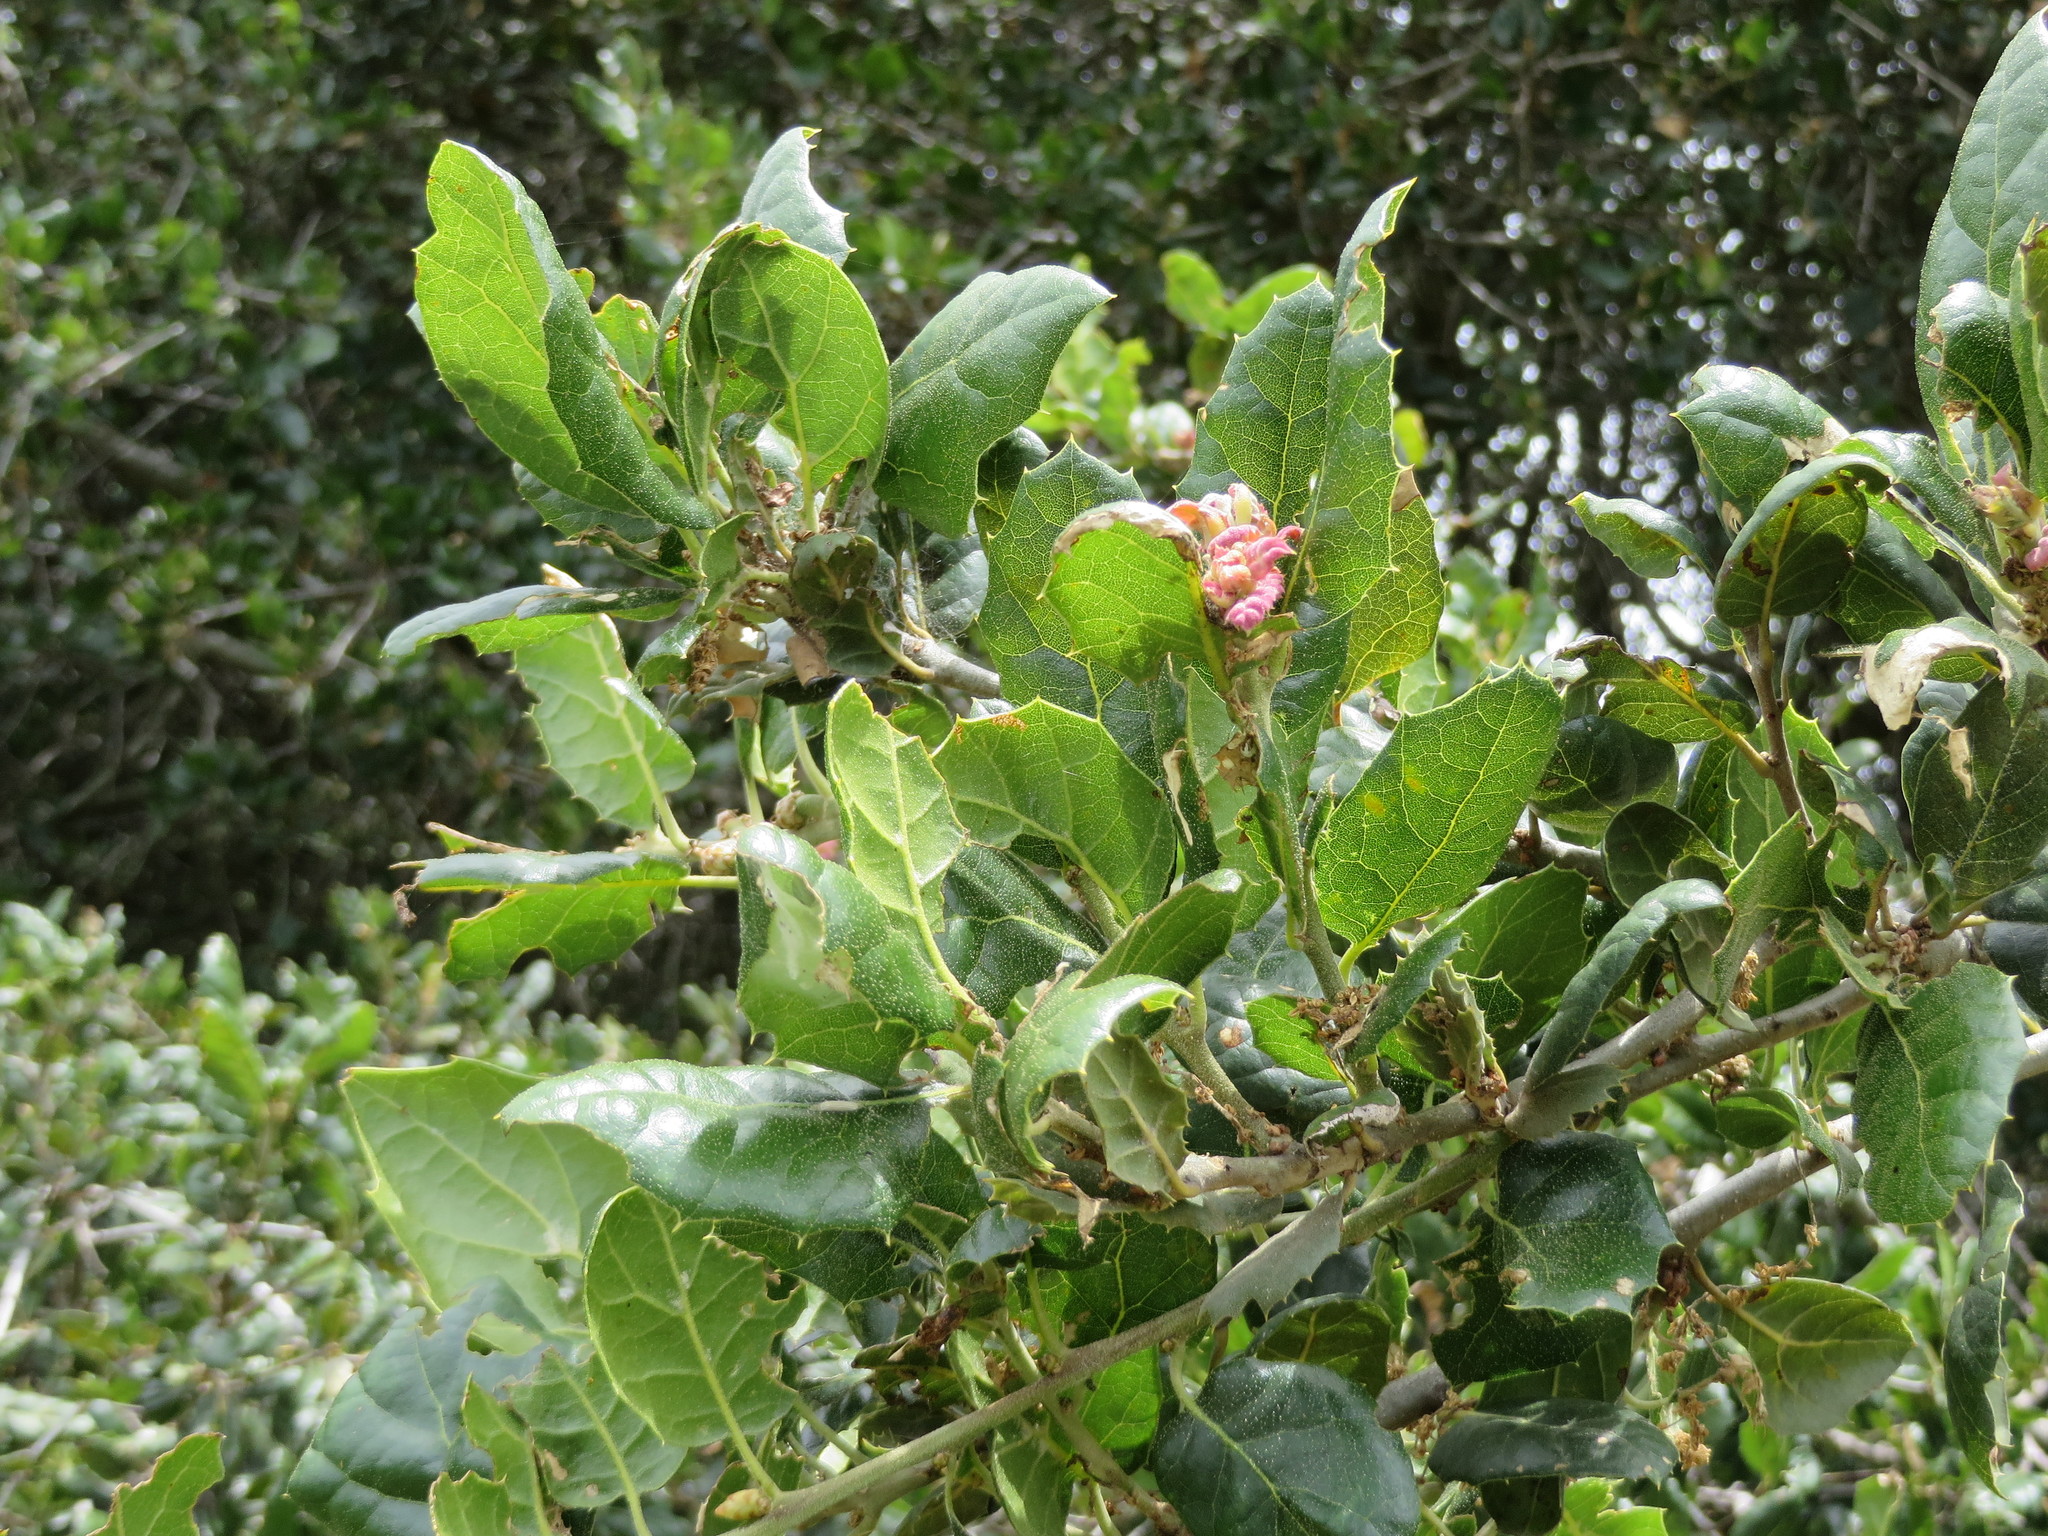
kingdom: Plantae
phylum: Tracheophyta
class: Magnoliopsida
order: Fagales
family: Fagaceae
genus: Quercus
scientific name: Quercus agrifolia
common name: California live oak
